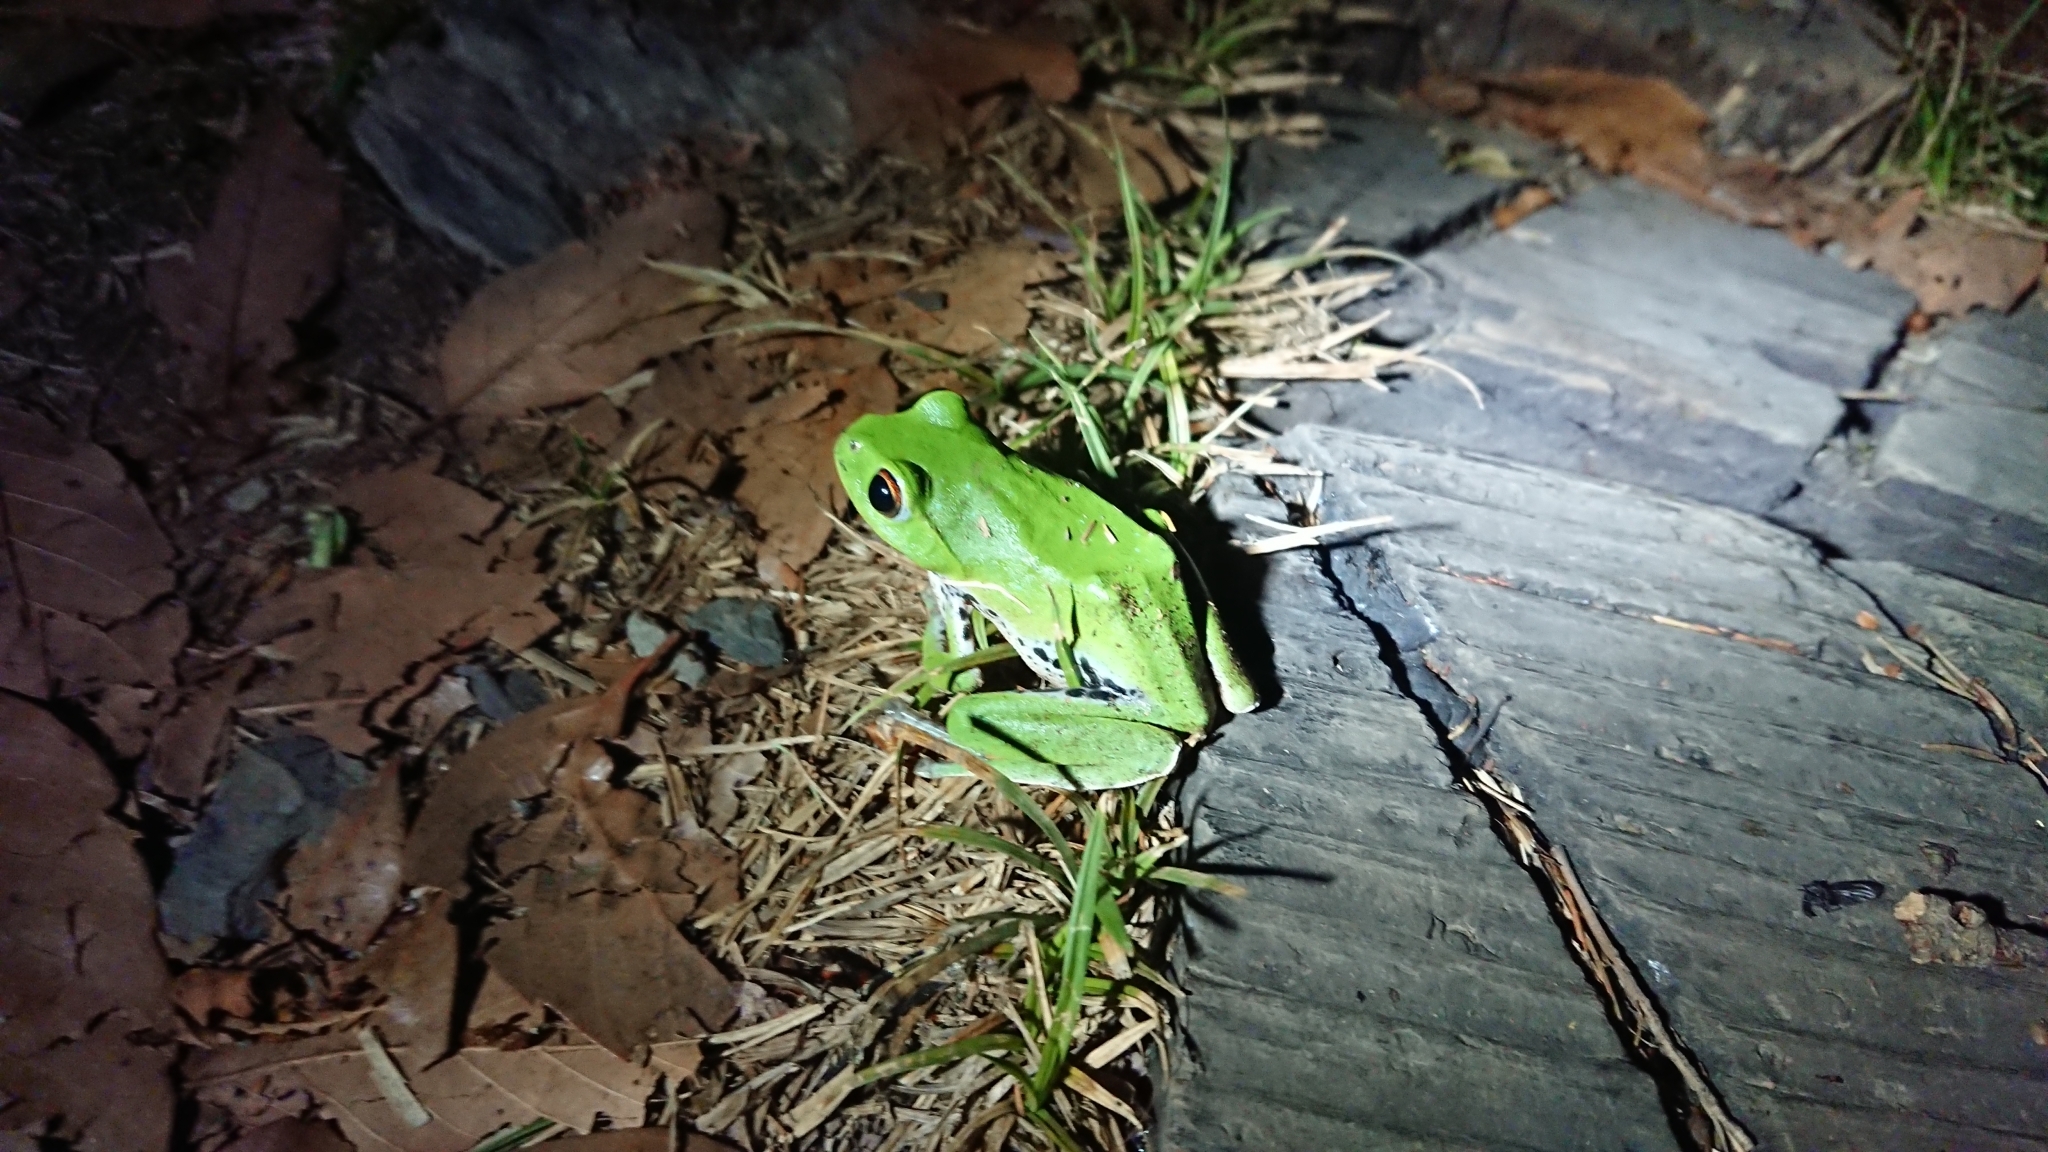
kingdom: Animalia
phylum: Chordata
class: Amphibia
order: Anura
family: Rhacophoridae
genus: Zhangixalus
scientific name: Zhangixalus moltrechti
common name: Moltrecht's treefrog
